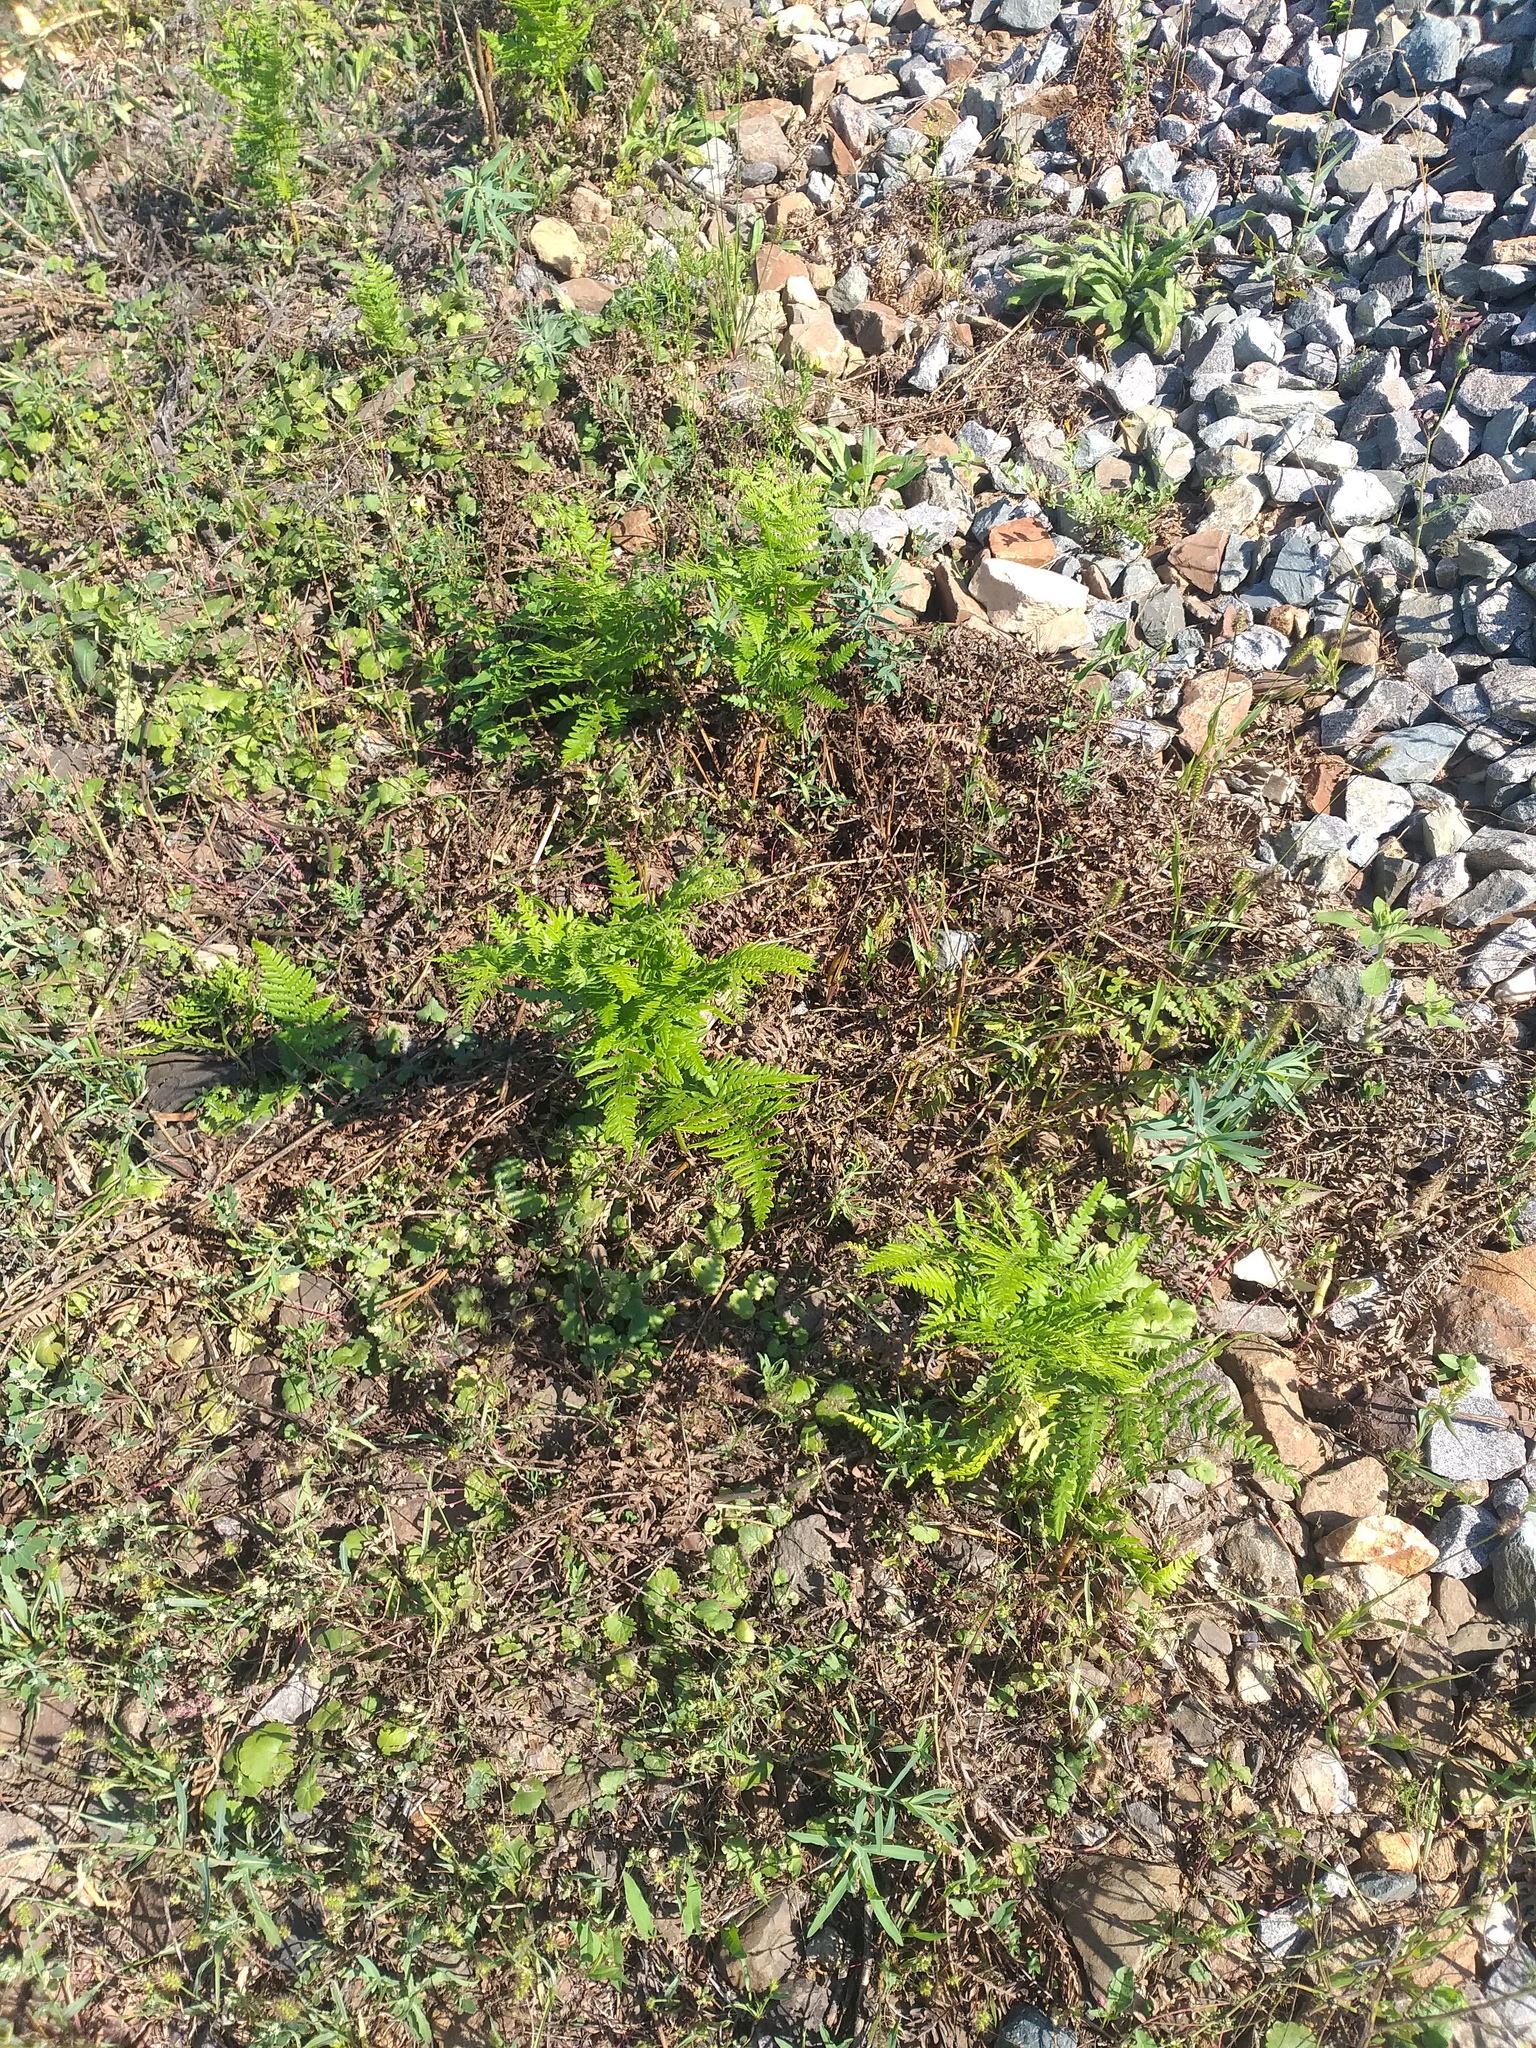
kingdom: Plantae
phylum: Tracheophyta
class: Polypodiopsida
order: Polypodiales
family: Dennstaedtiaceae
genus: Pteridium
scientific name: Pteridium aquilinum
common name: Bracken
